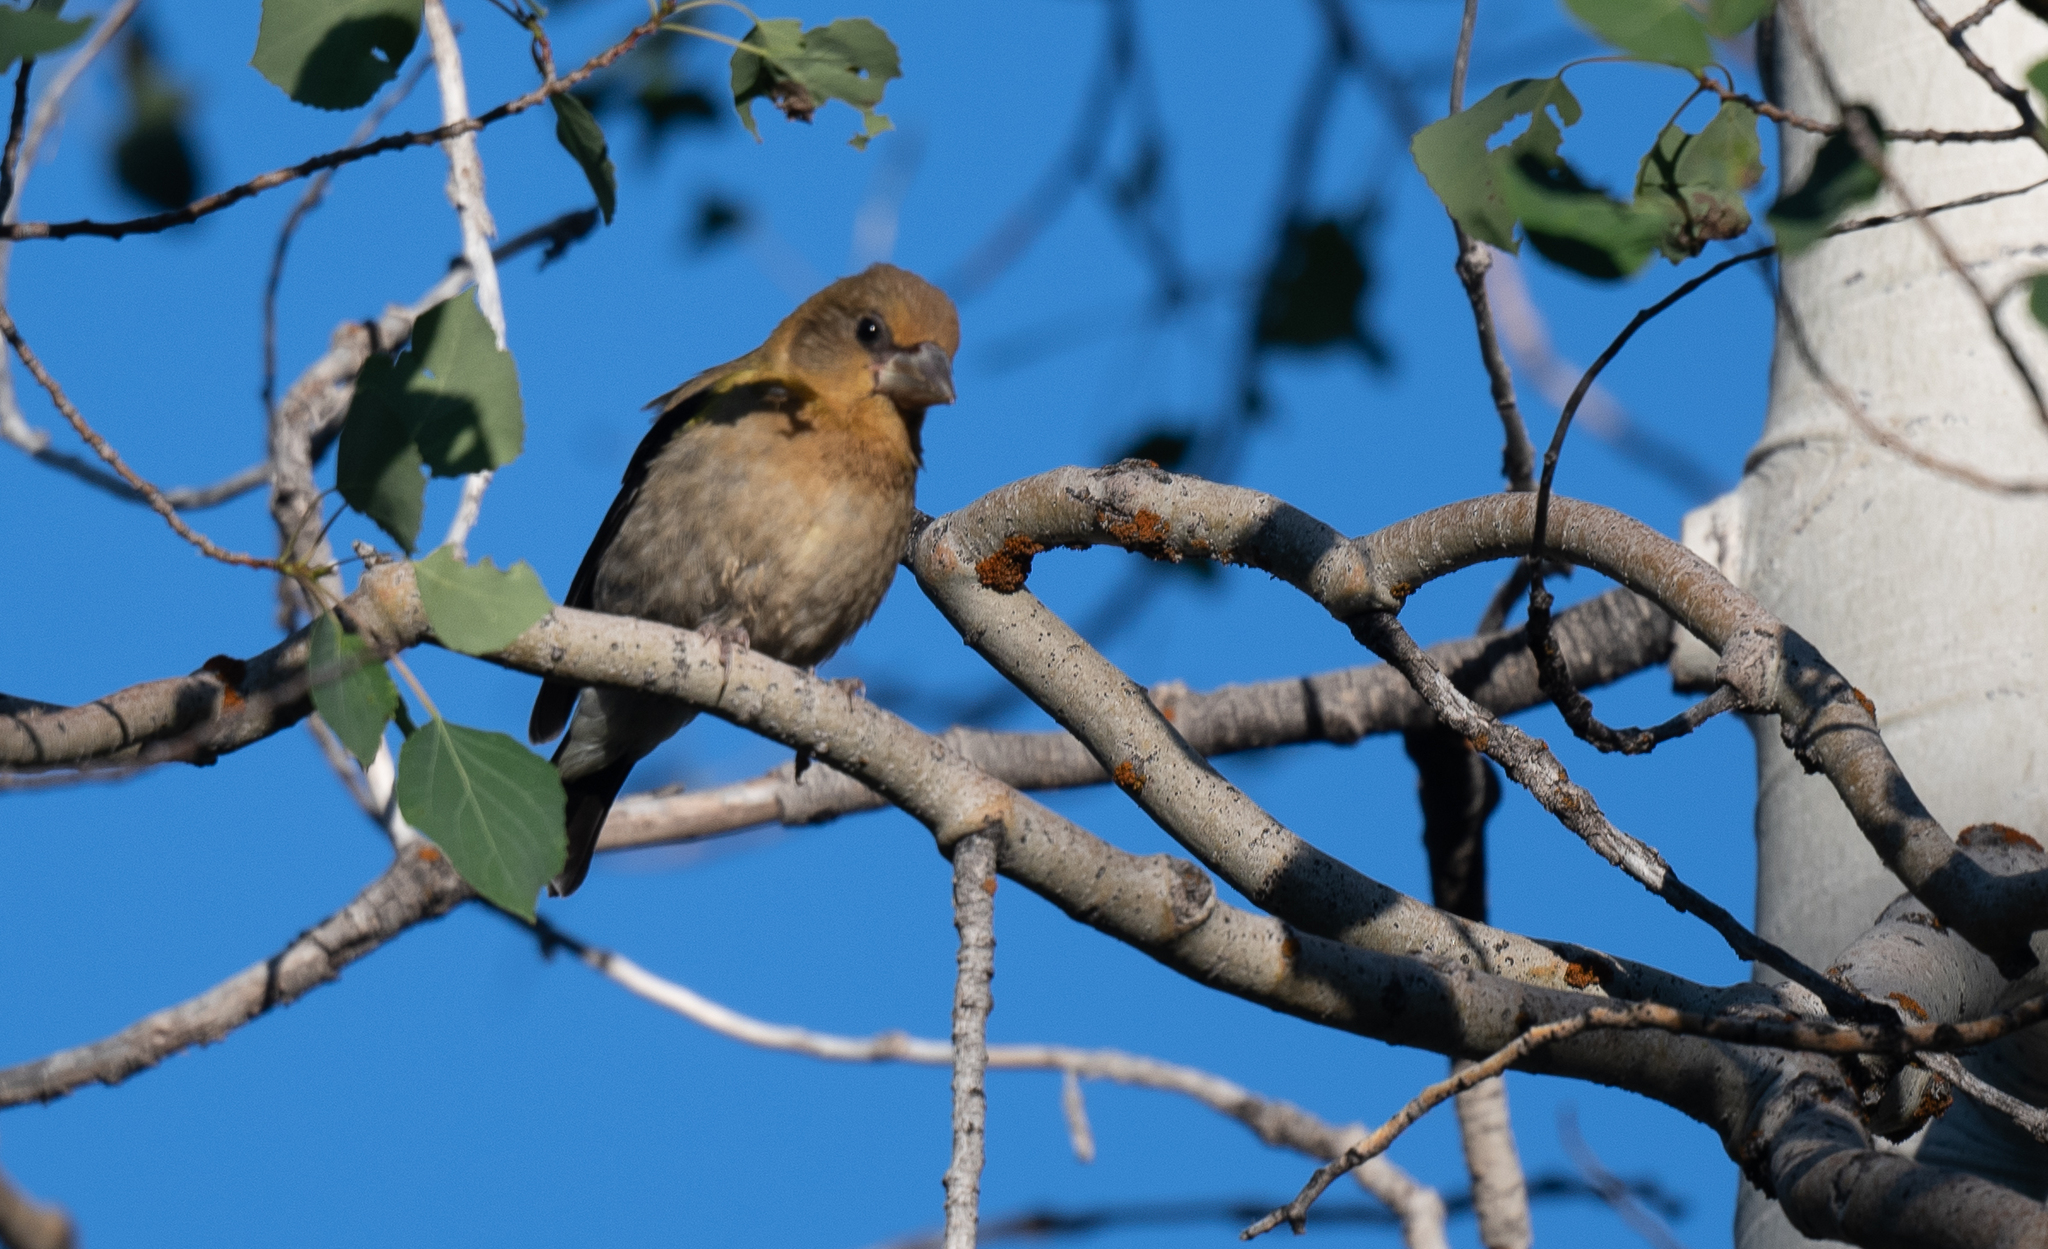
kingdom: Animalia
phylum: Chordata
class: Aves
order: Passeriformes
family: Fringillidae
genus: Hesperiphona
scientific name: Hesperiphona vespertina
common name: Evening grosbeak
